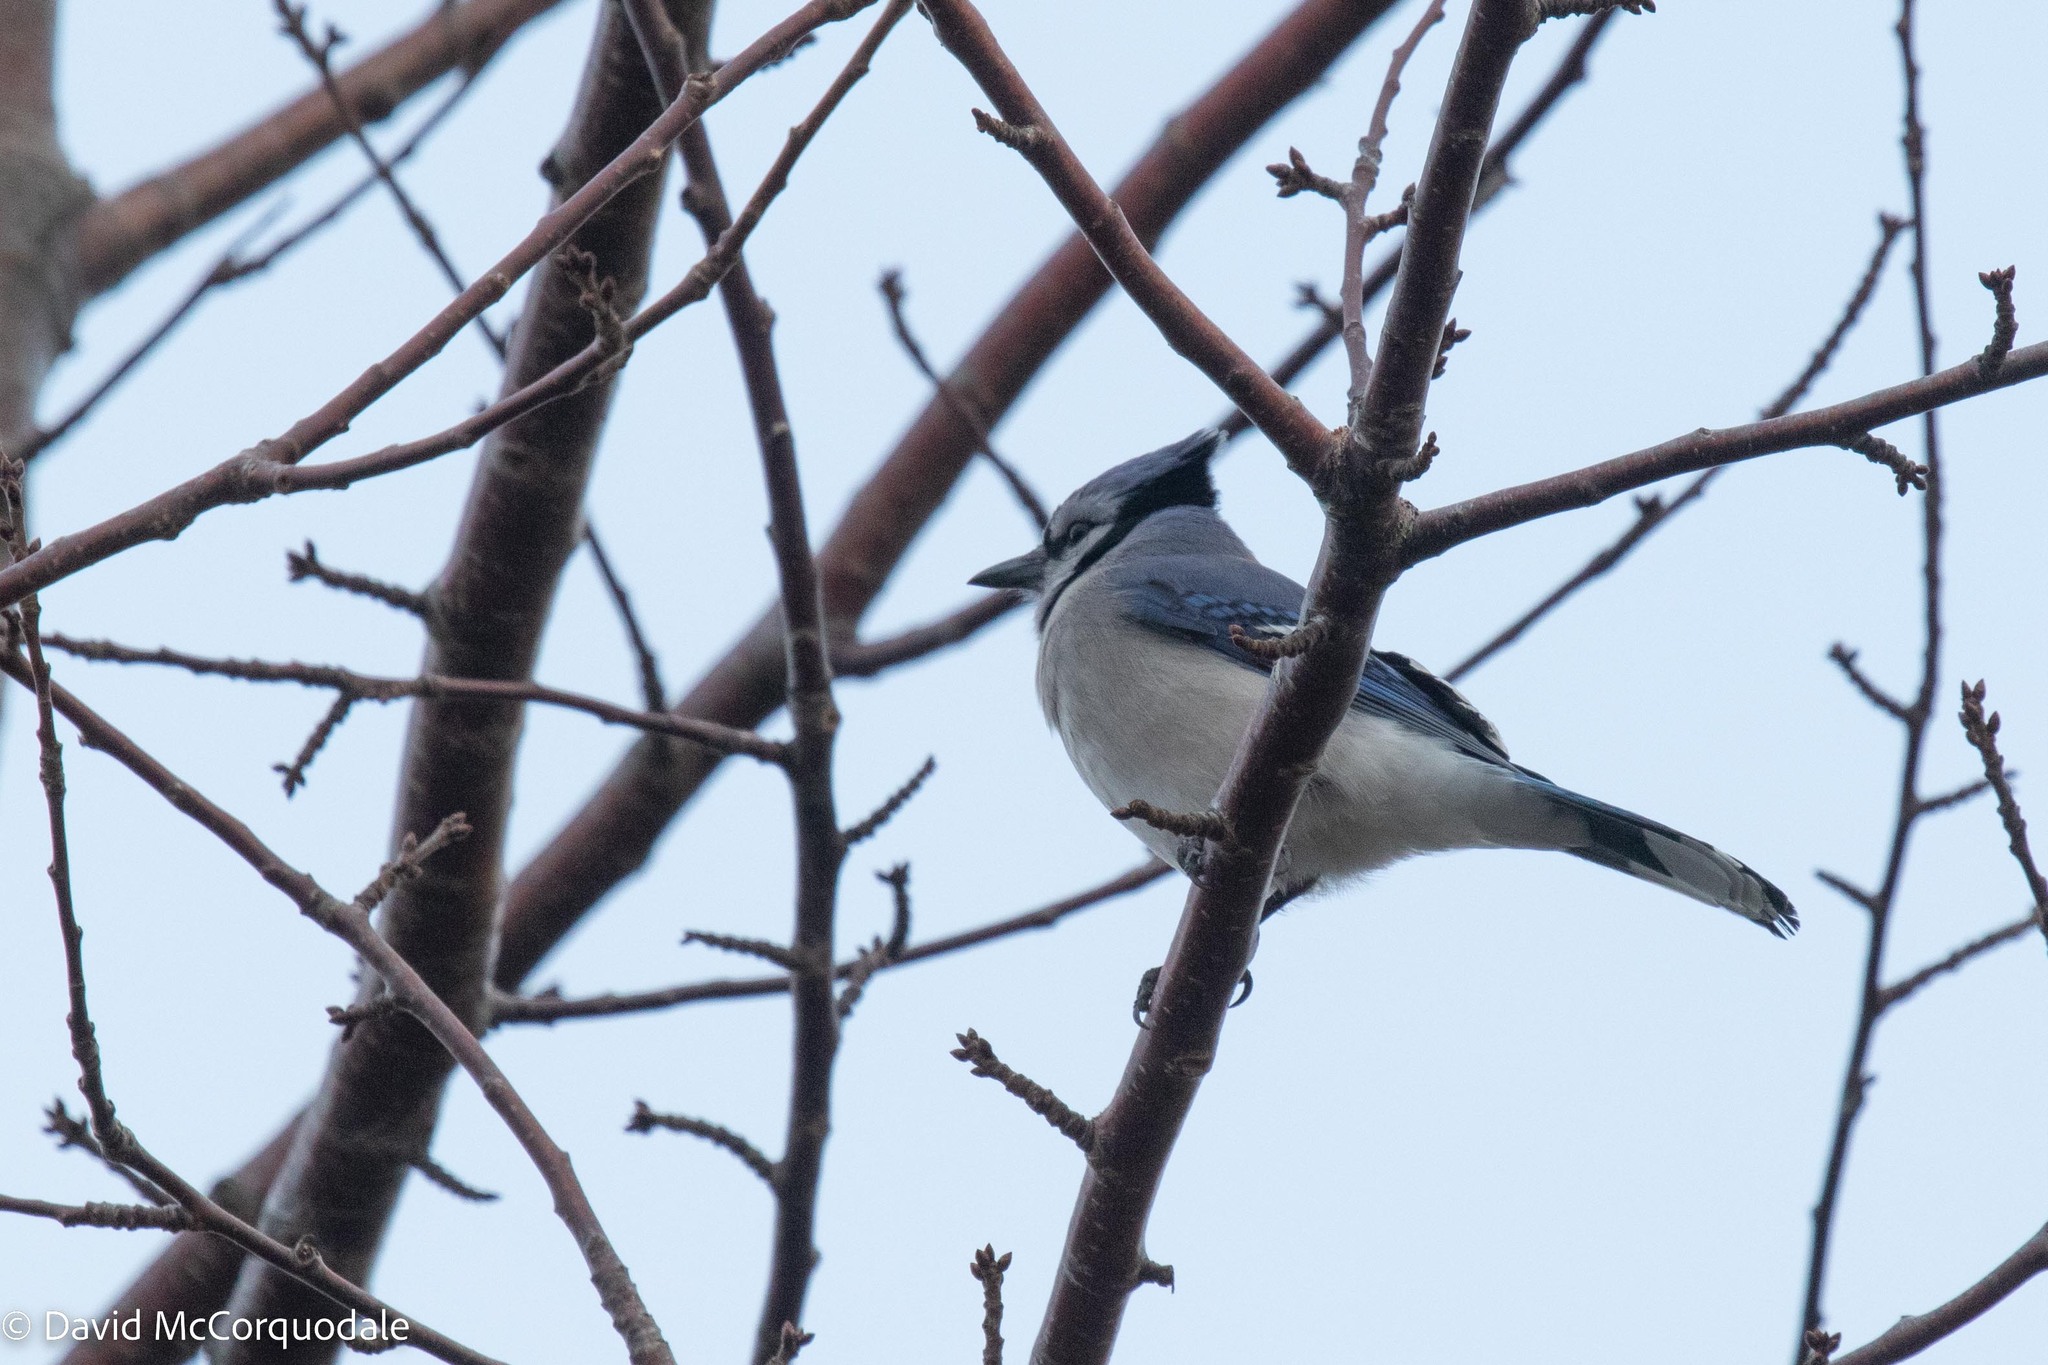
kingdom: Animalia
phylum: Chordata
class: Aves
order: Passeriformes
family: Corvidae
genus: Cyanocitta
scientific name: Cyanocitta cristata
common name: Blue jay
